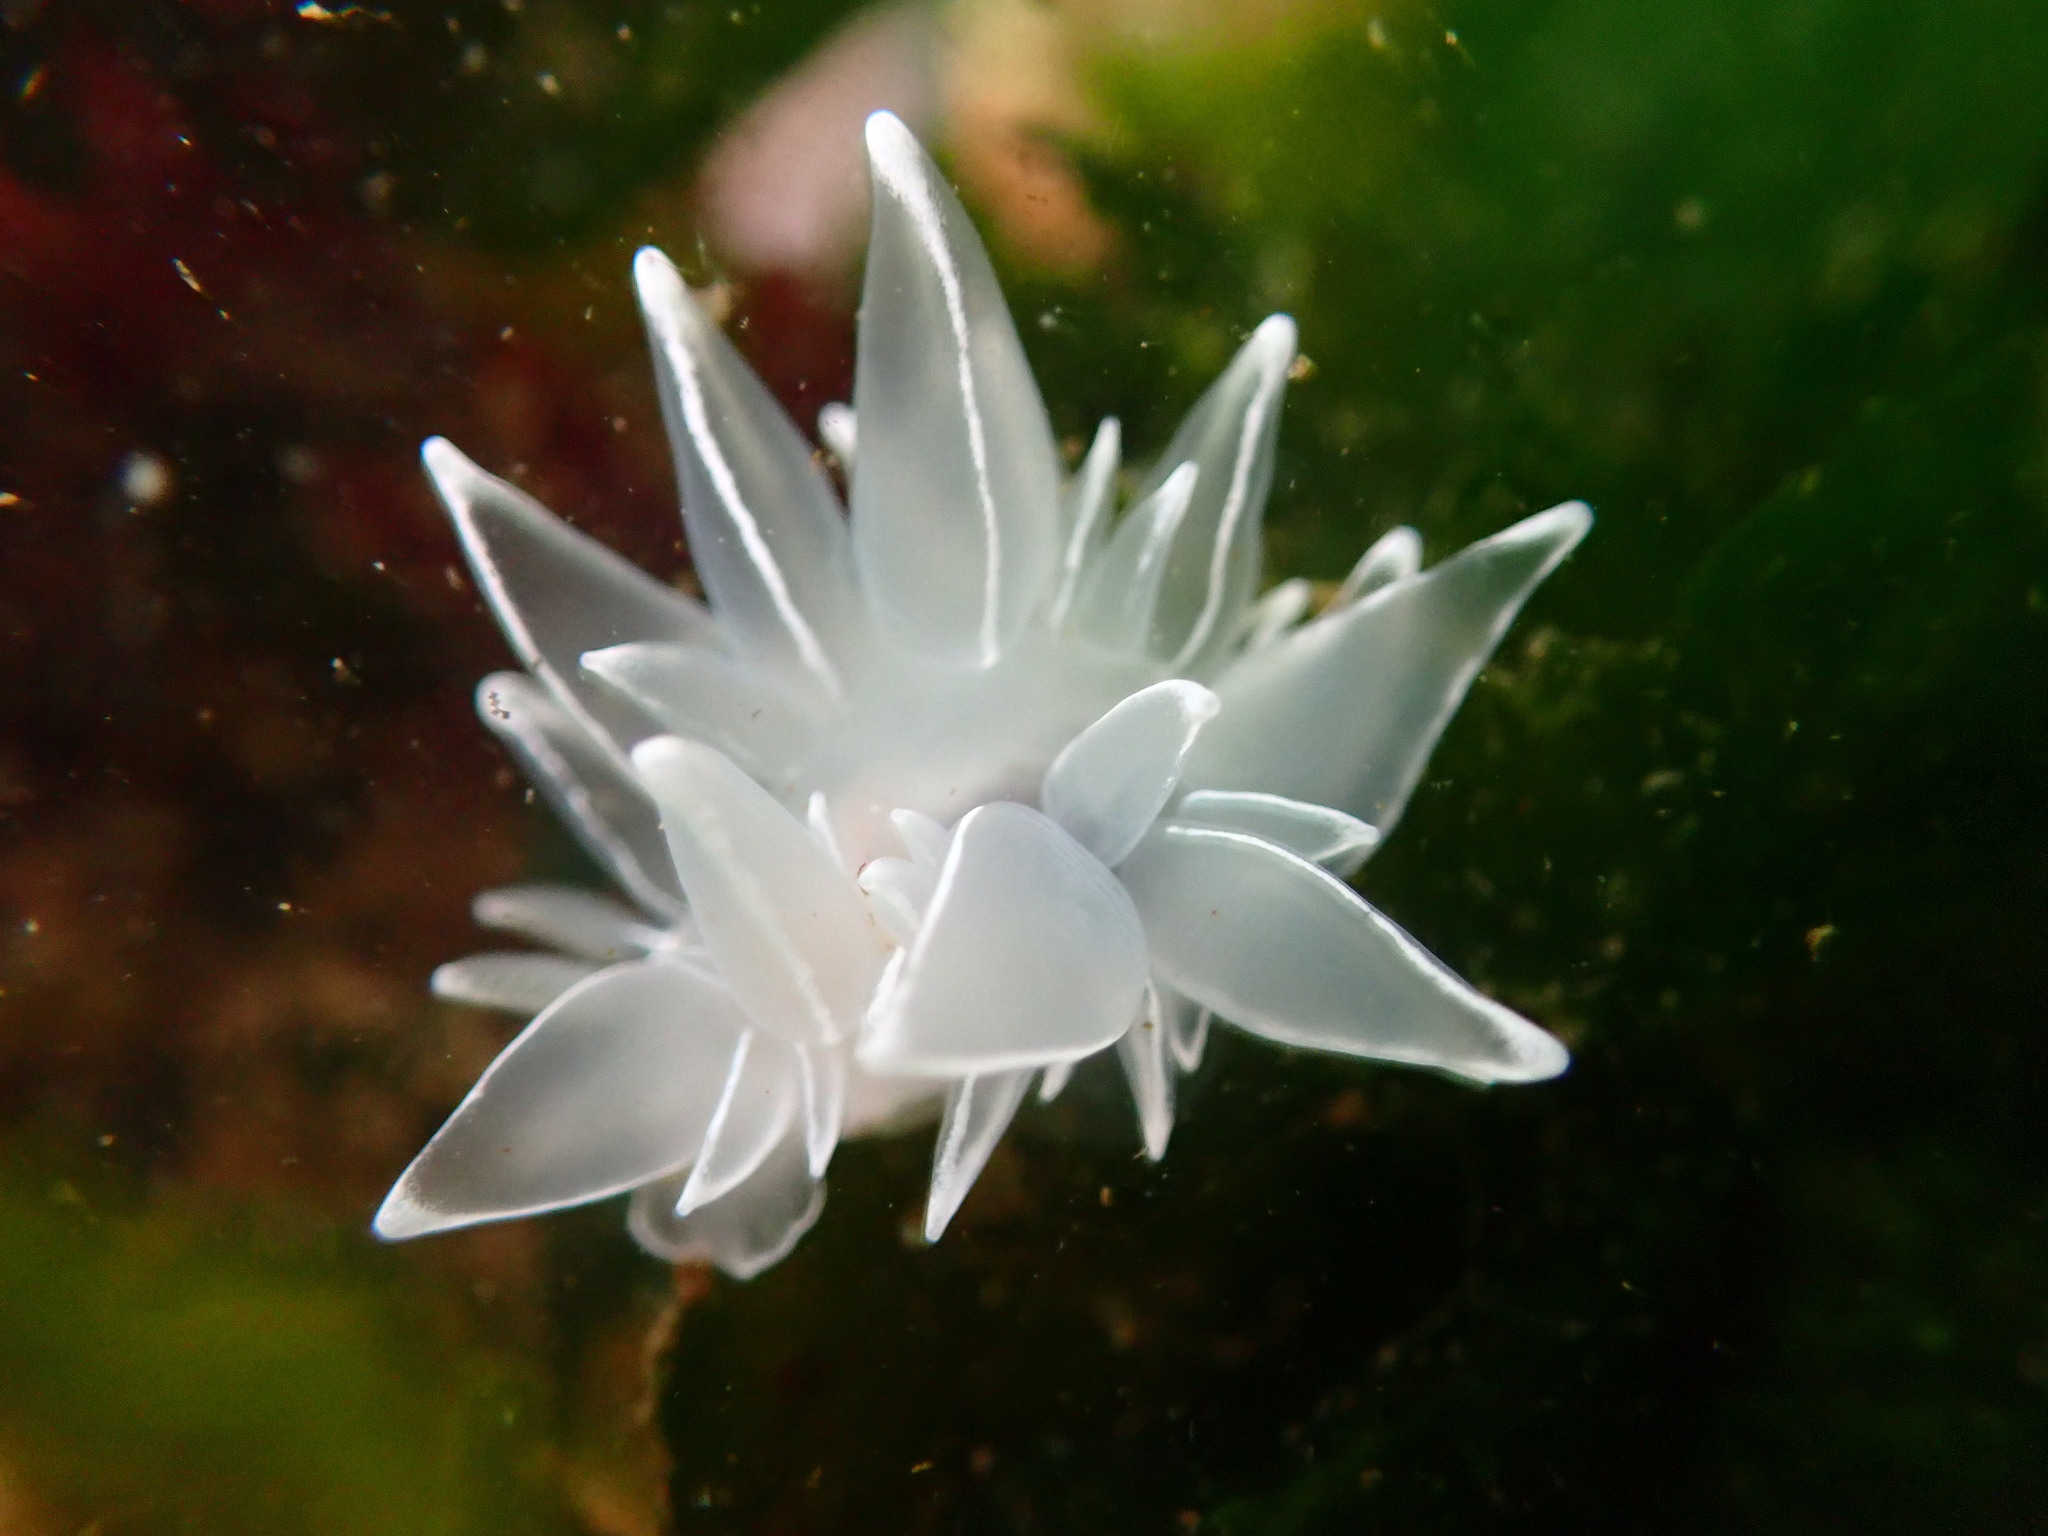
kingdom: Animalia
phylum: Mollusca
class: Gastropoda
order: Nudibranchia
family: Dironidae
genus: Dirona
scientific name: Dirona albolineata
